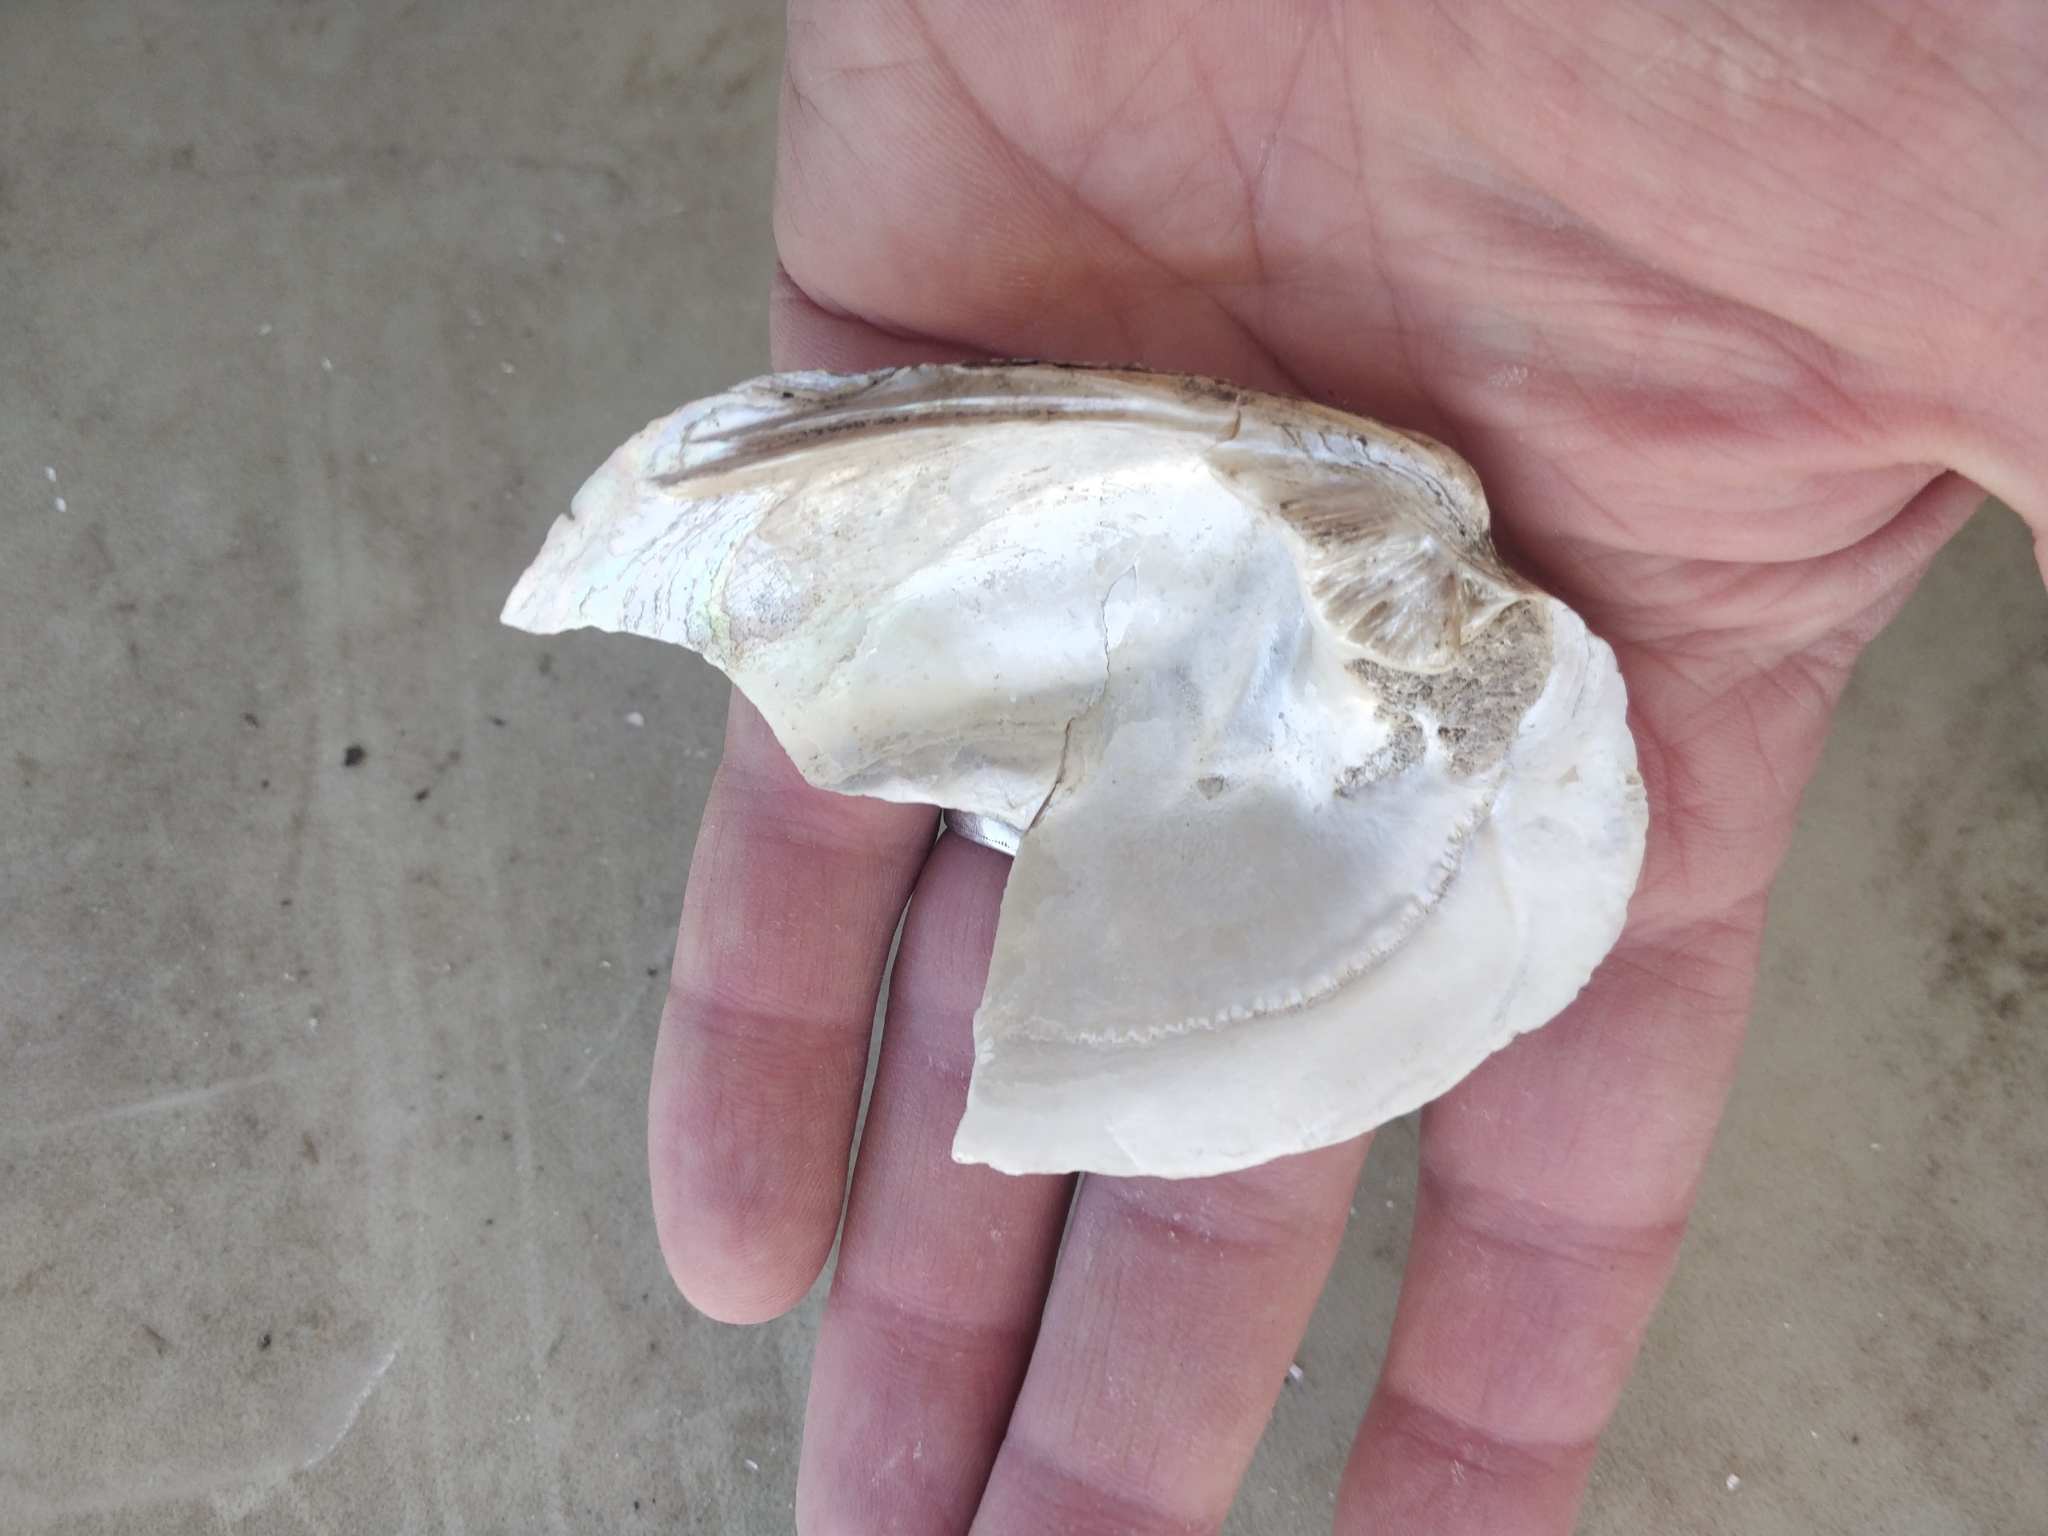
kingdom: Animalia
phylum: Mollusca
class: Bivalvia
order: Unionida
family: Unionidae
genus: Amblema
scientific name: Amblema plicata
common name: Threeridge
